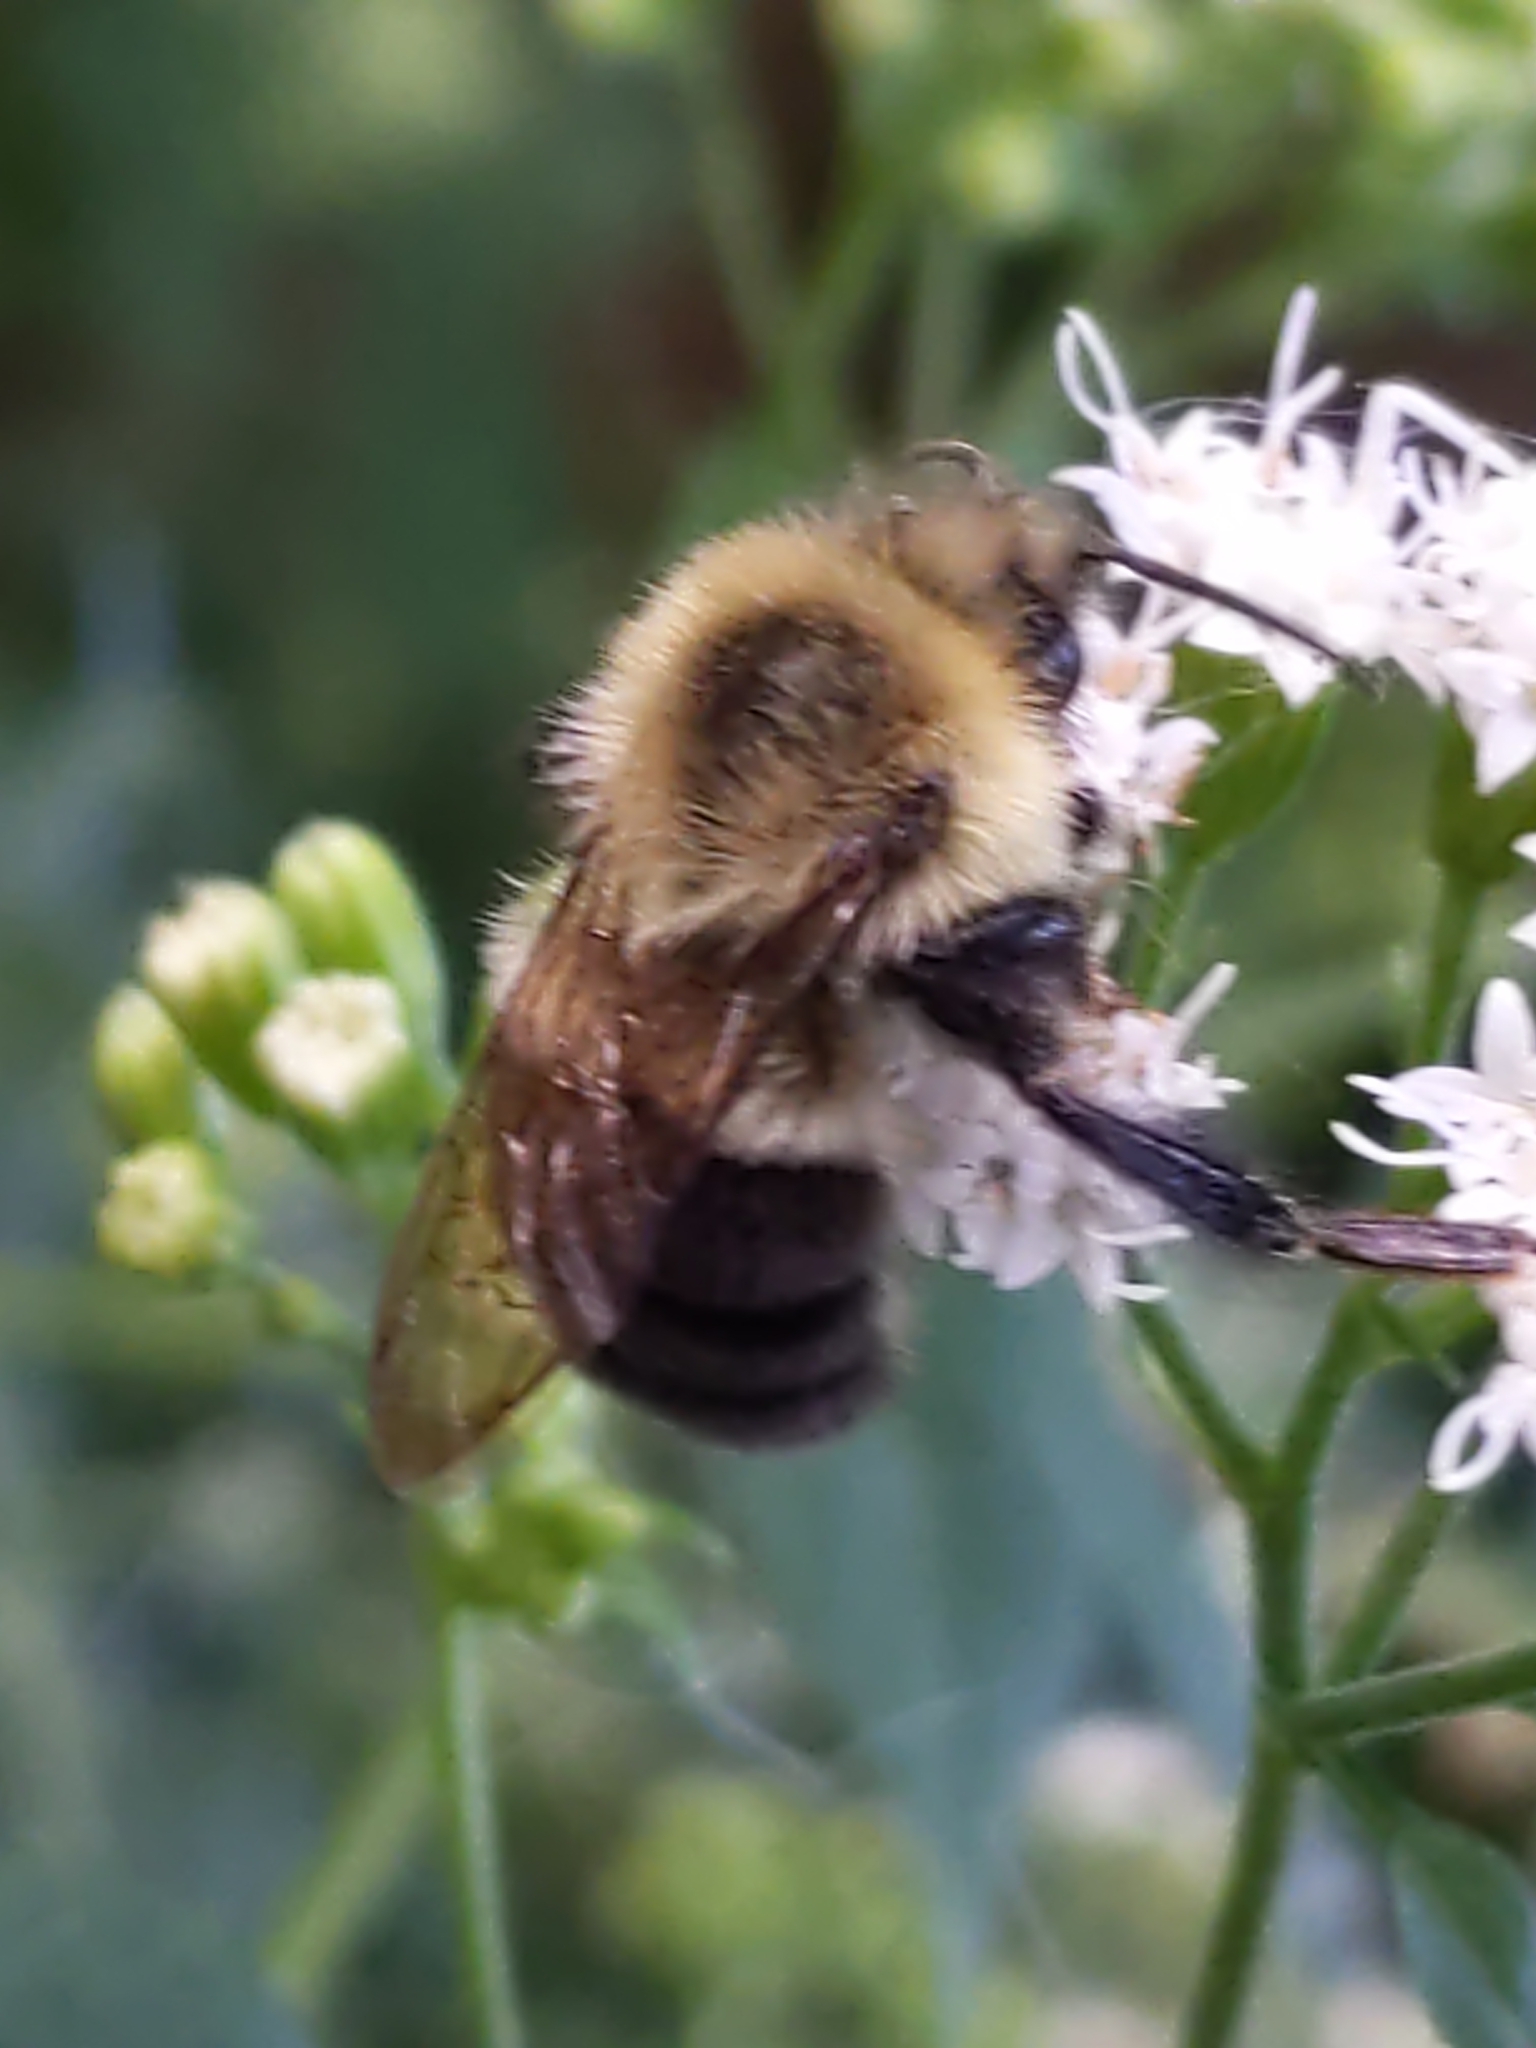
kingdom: Animalia
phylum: Arthropoda
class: Insecta
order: Hymenoptera
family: Apidae
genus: Bombus
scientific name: Bombus impatiens
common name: Common eastern bumble bee
